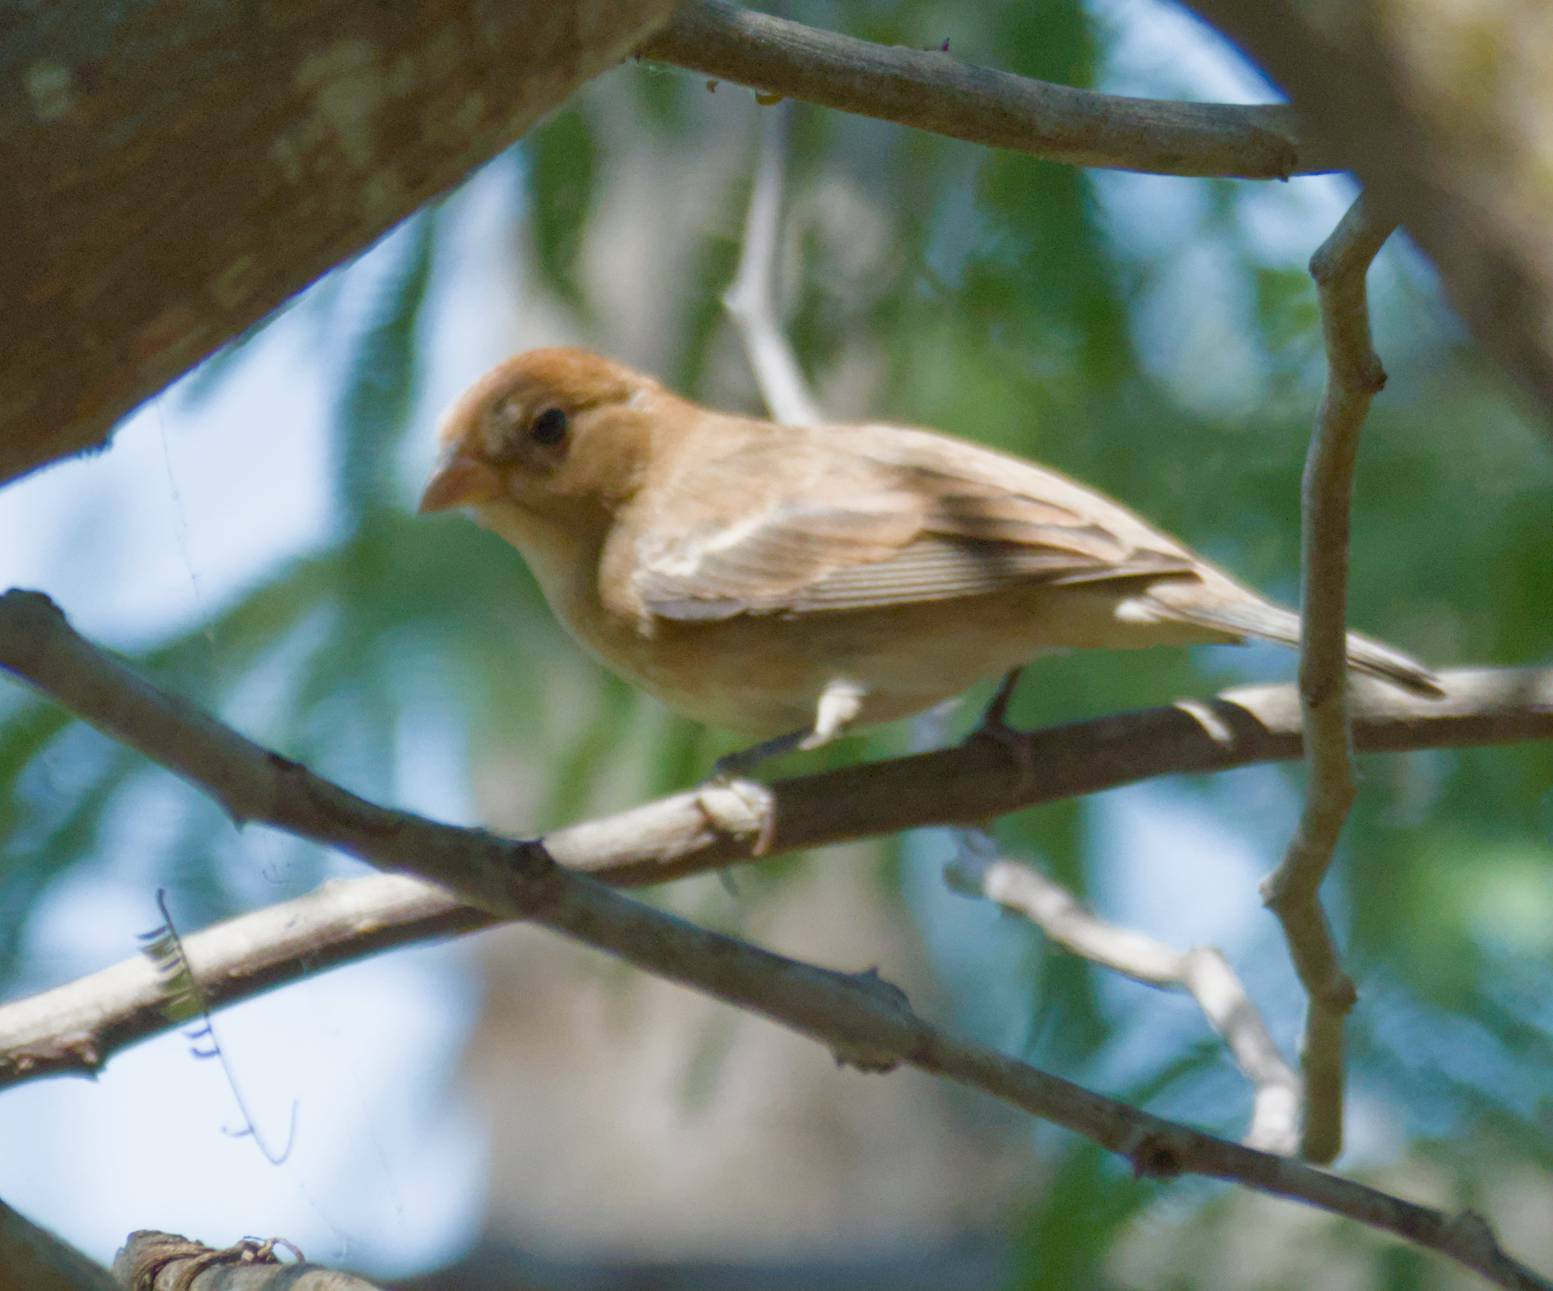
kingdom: Animalia
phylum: Chordata
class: Aves
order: Passeriformes
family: Cardinalidae
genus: Passerina
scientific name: Passerina cyanea
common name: Indigo bunting
